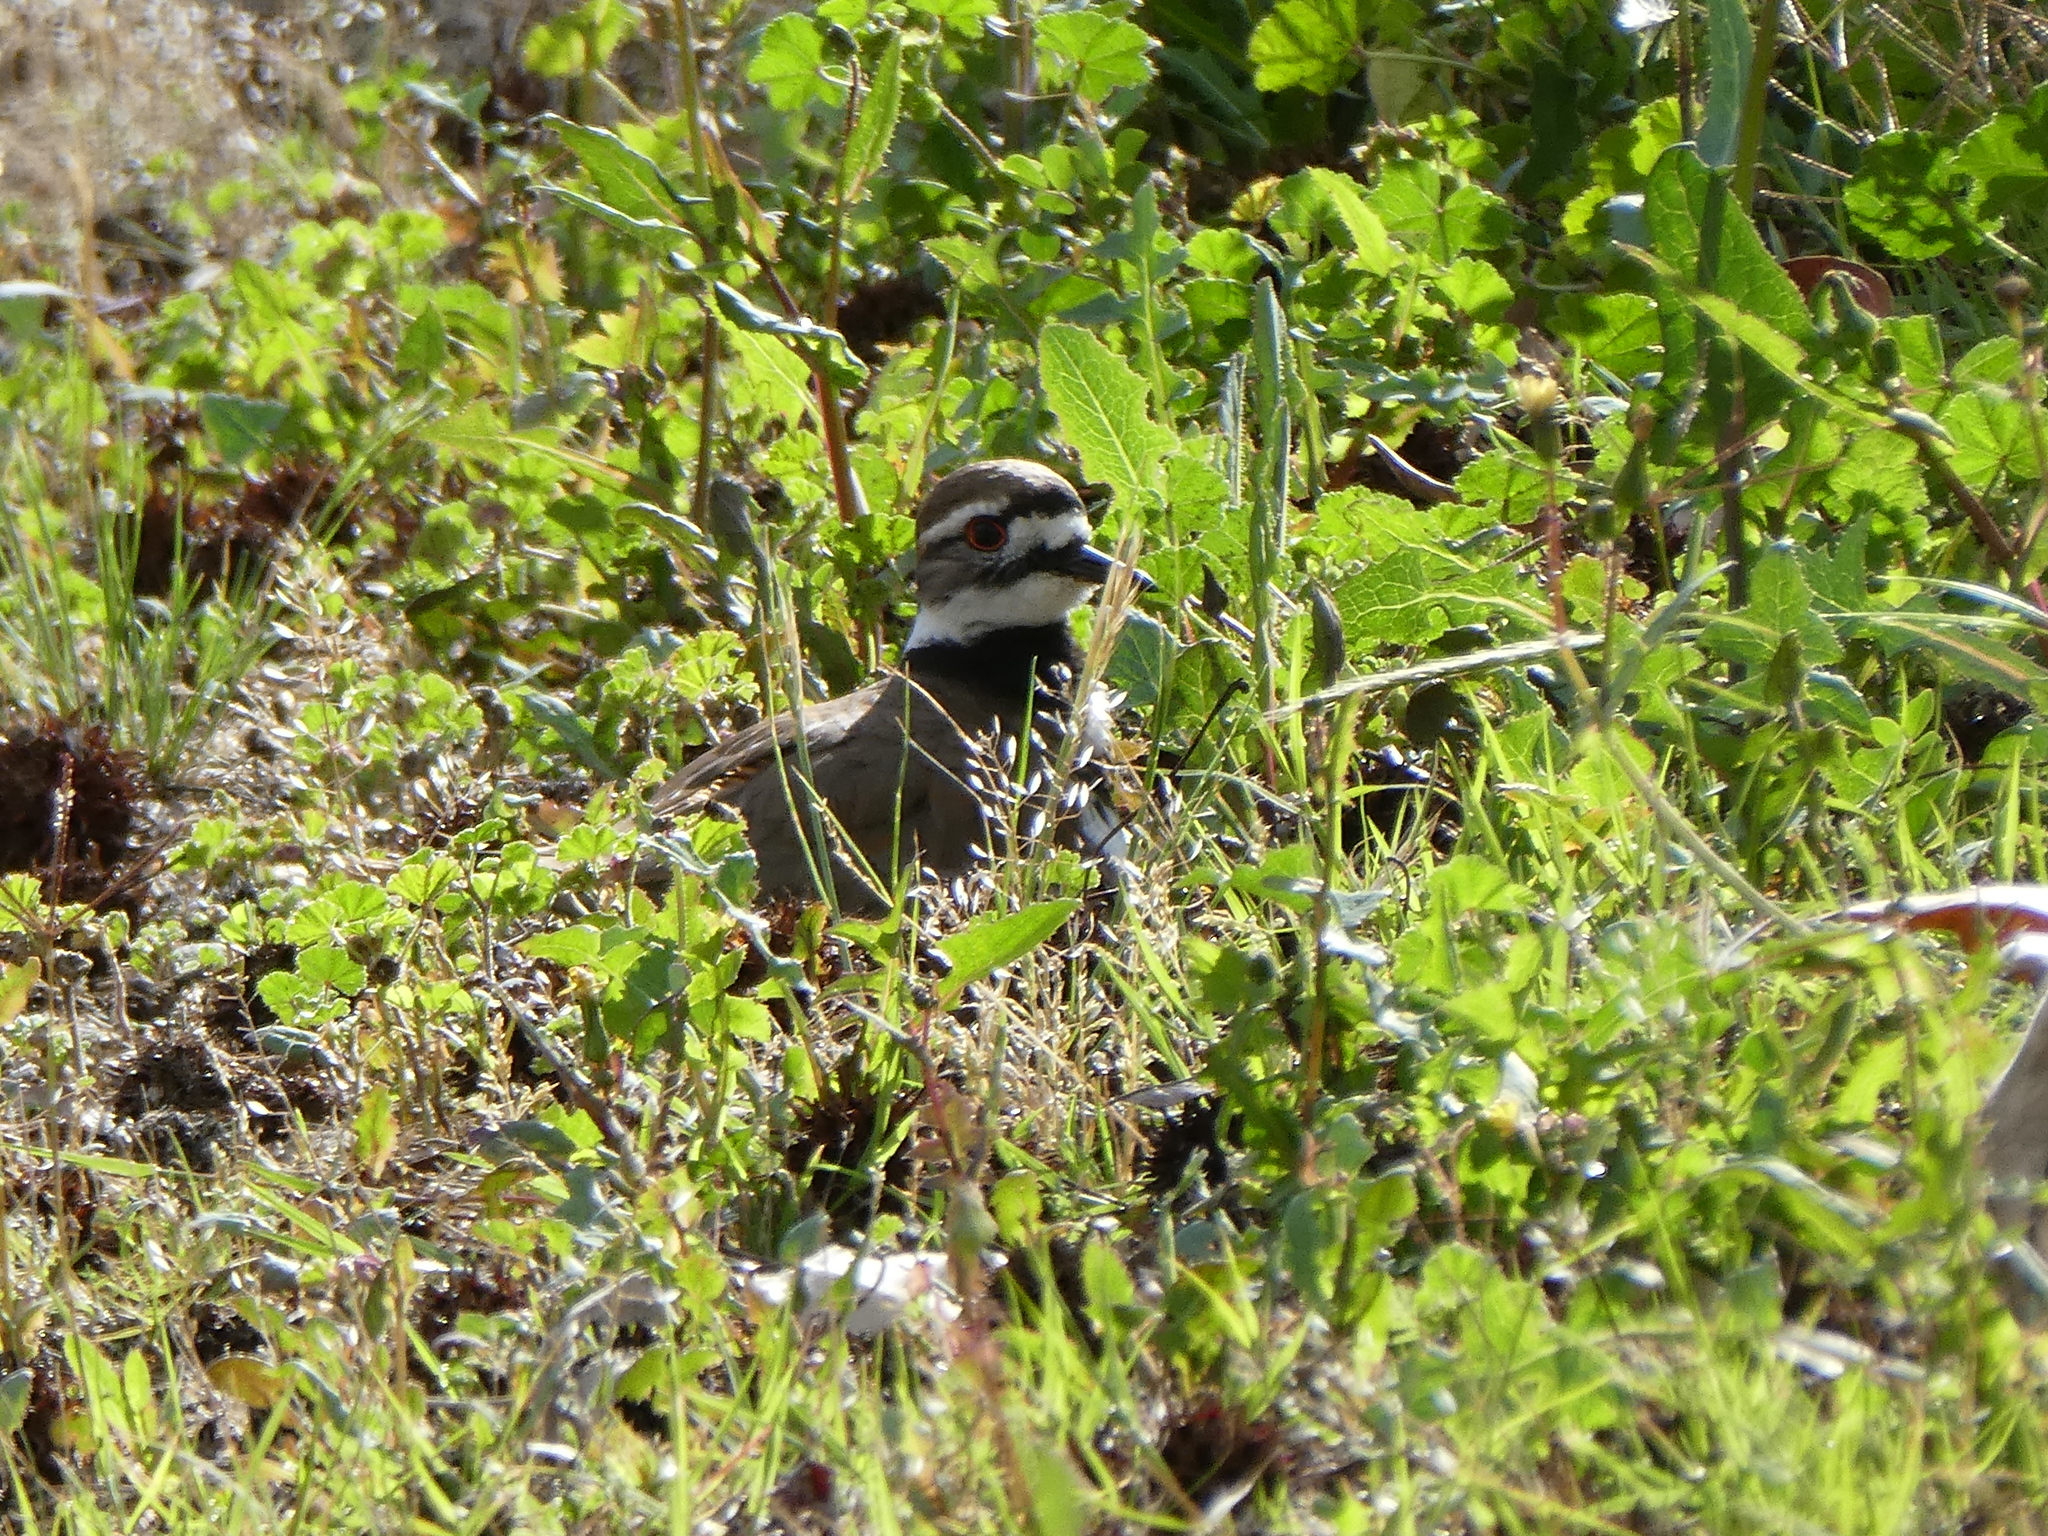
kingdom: Animalia
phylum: Chordata
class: Aves
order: Charadriiformes
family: Charadriidae
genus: Charadrius
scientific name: Charadrius vociferus
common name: Killdeer
